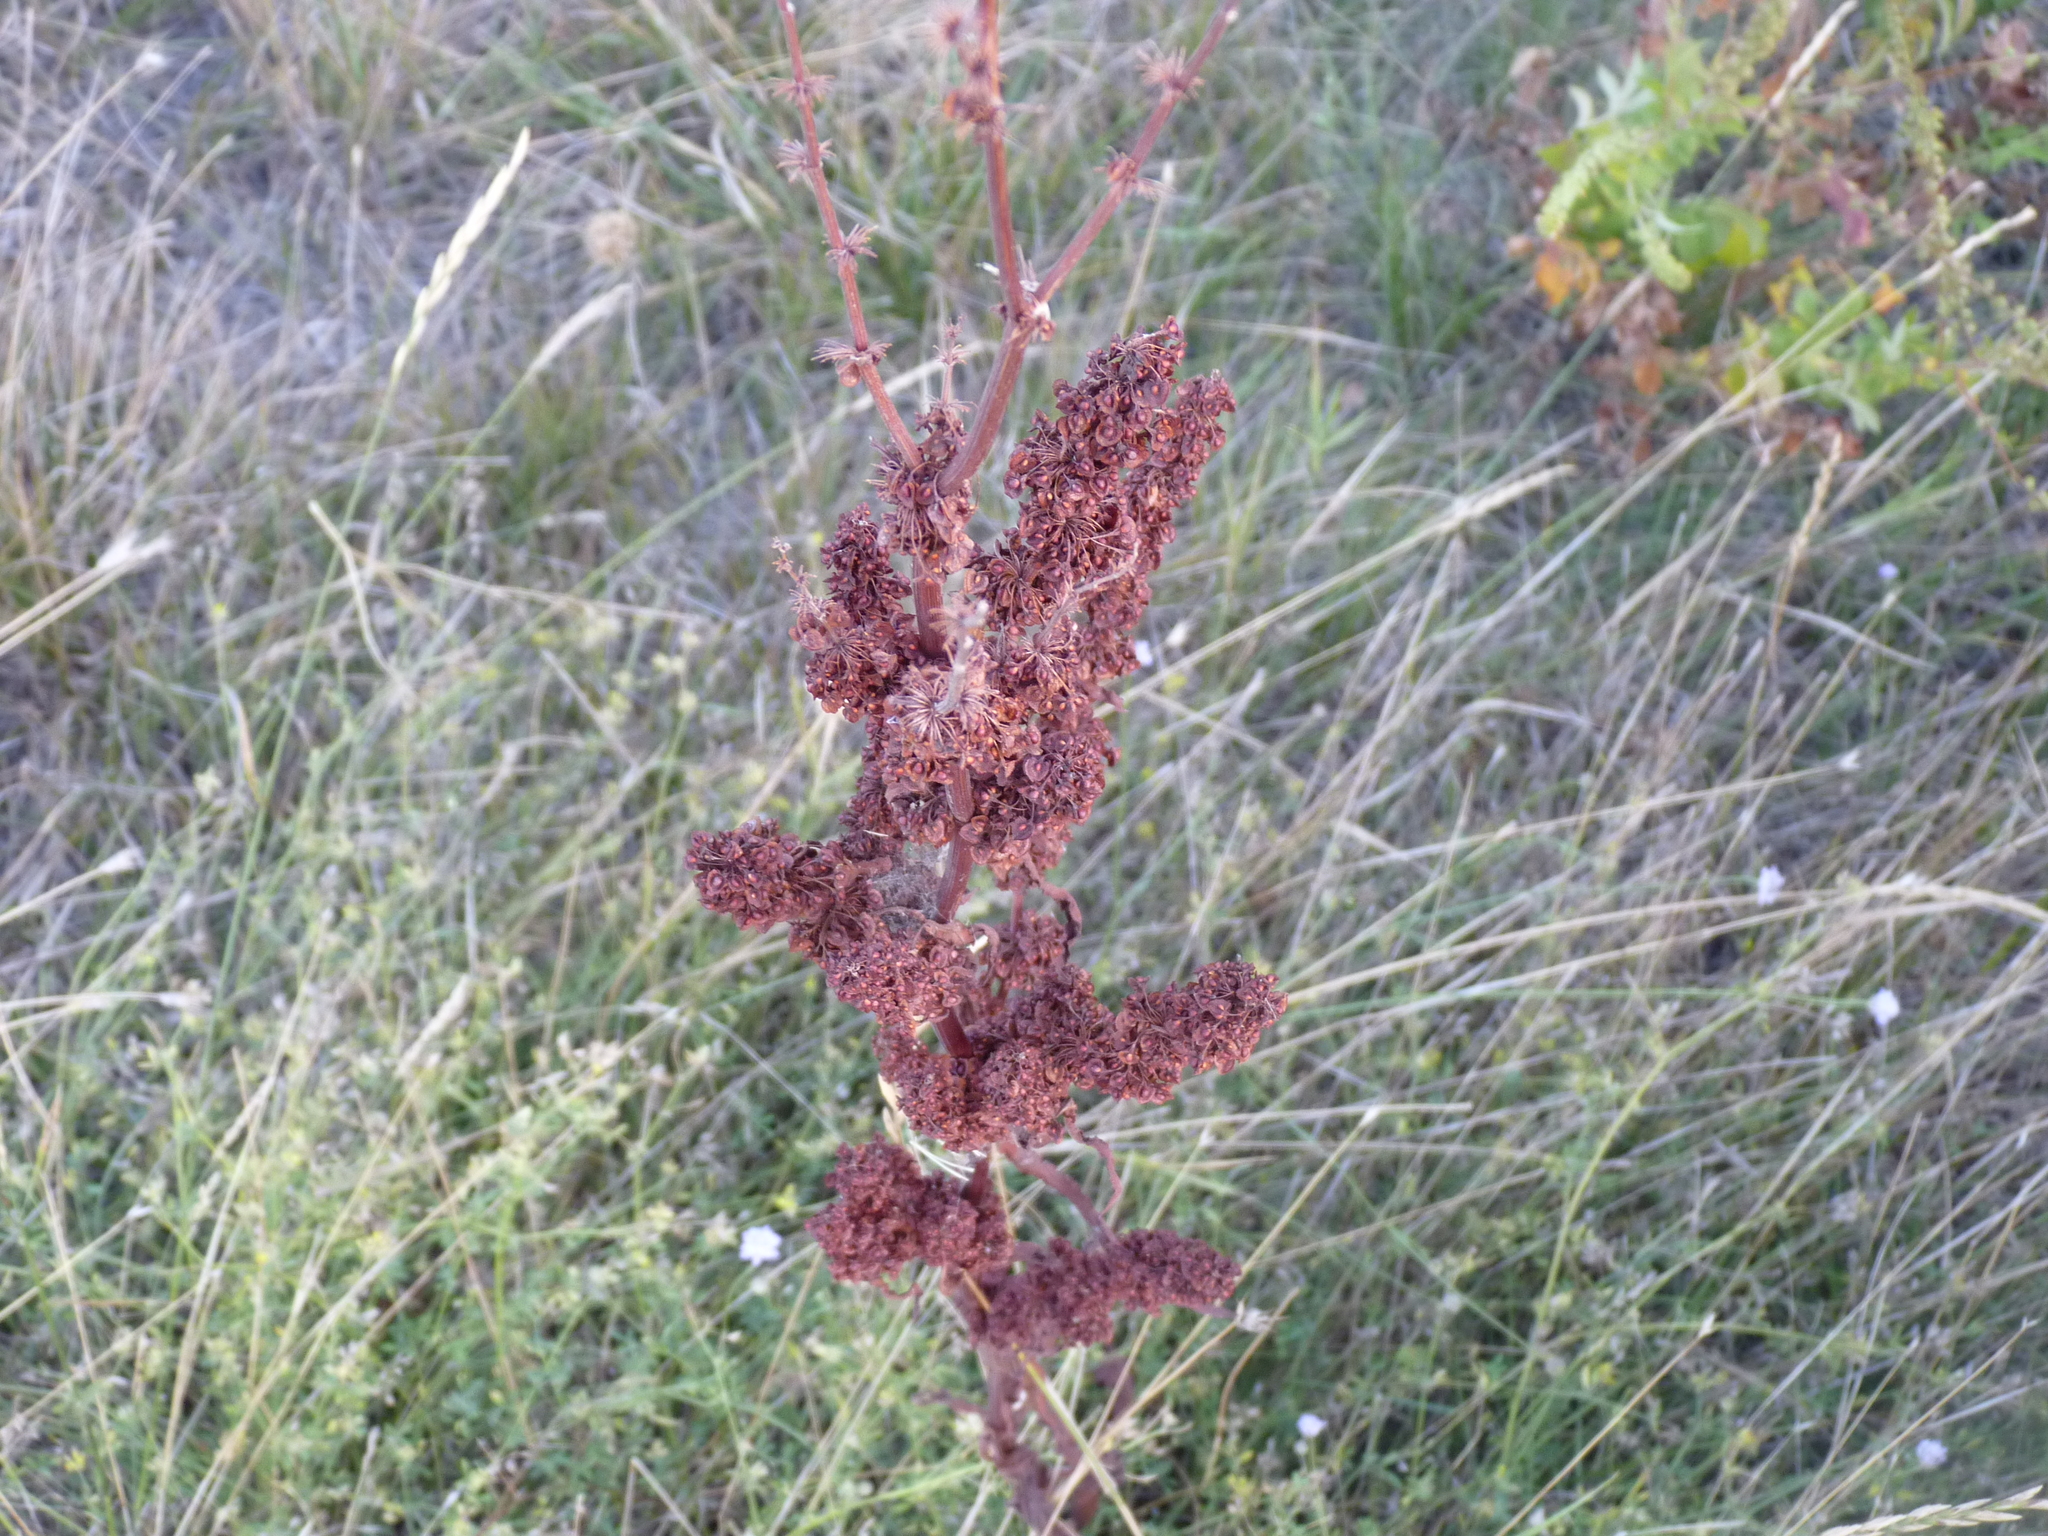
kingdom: Plantae
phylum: Tracheophyta
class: Magnoliopsida
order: Caryophyllales
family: Polygonaceae
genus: Rumex
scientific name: Rumex crispus
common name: Curled dock
